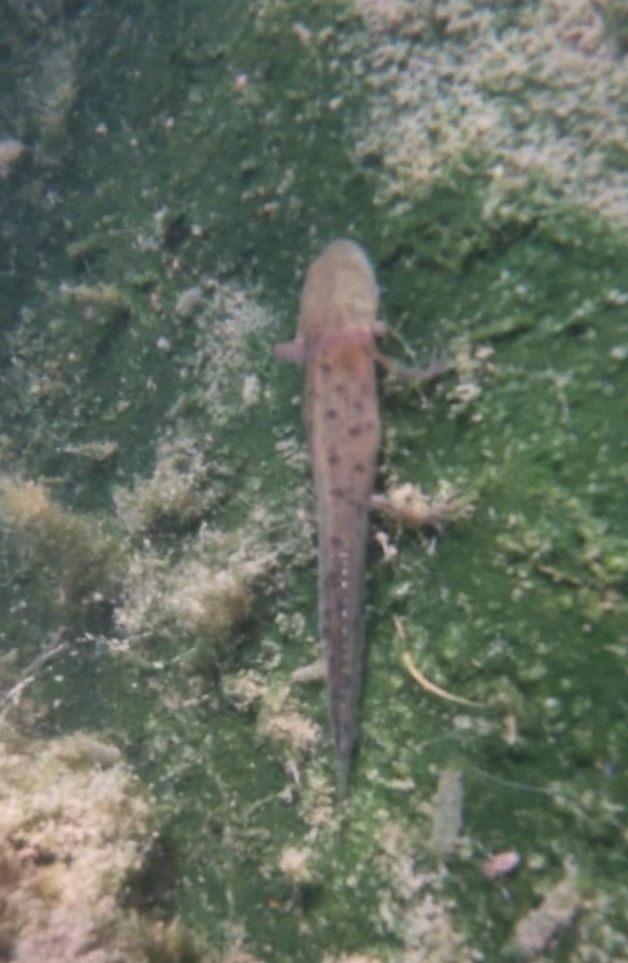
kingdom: Animalia
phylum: Chordata
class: Amphibia
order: Caudata
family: Salamandridae
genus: Triturus
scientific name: Triturus carnifex
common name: Italian crested newt
